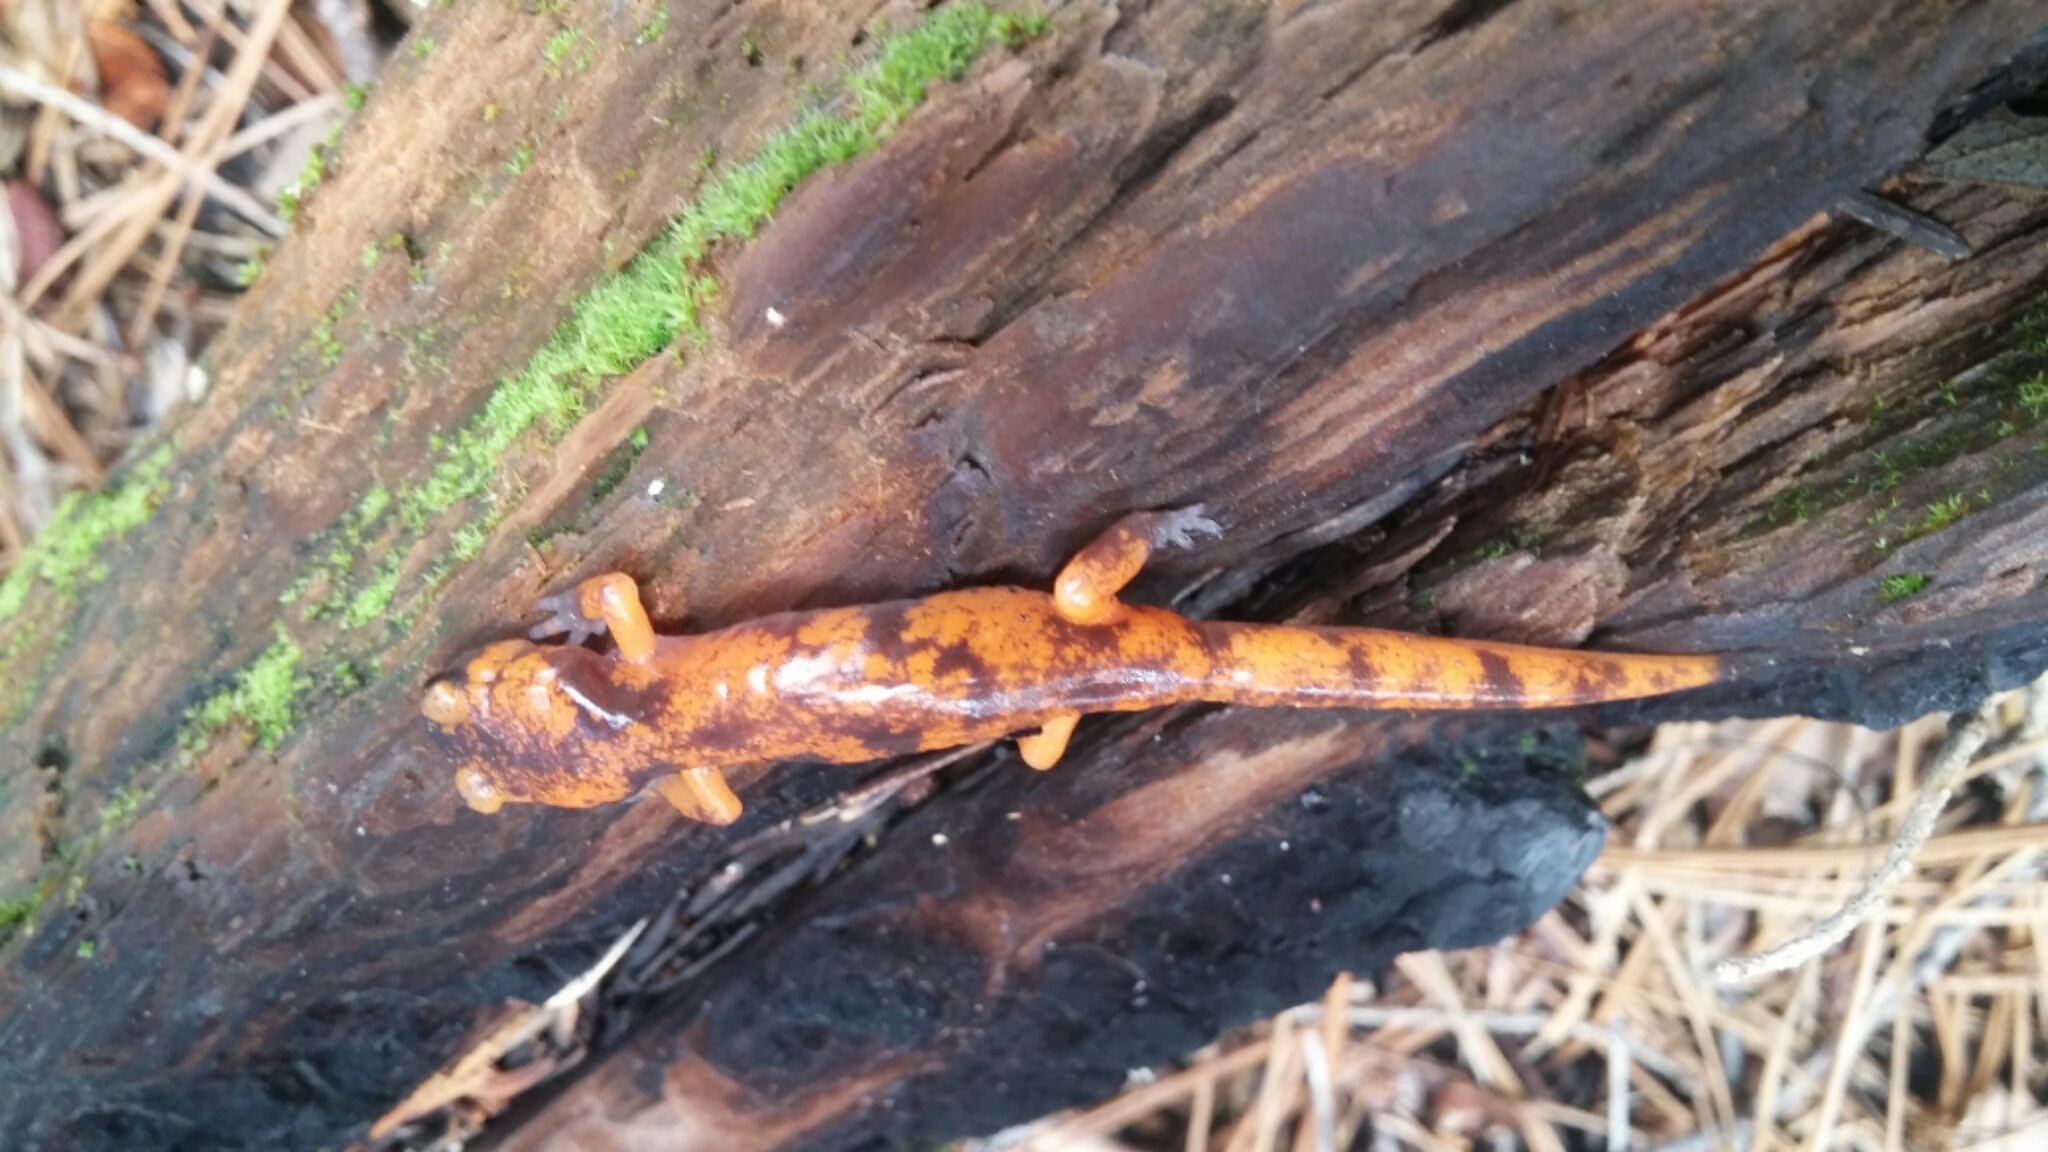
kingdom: Animalia
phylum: Chordata
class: Amphibia
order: Caudata
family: Plethodontidae
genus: Ensatina
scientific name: Ensatina
